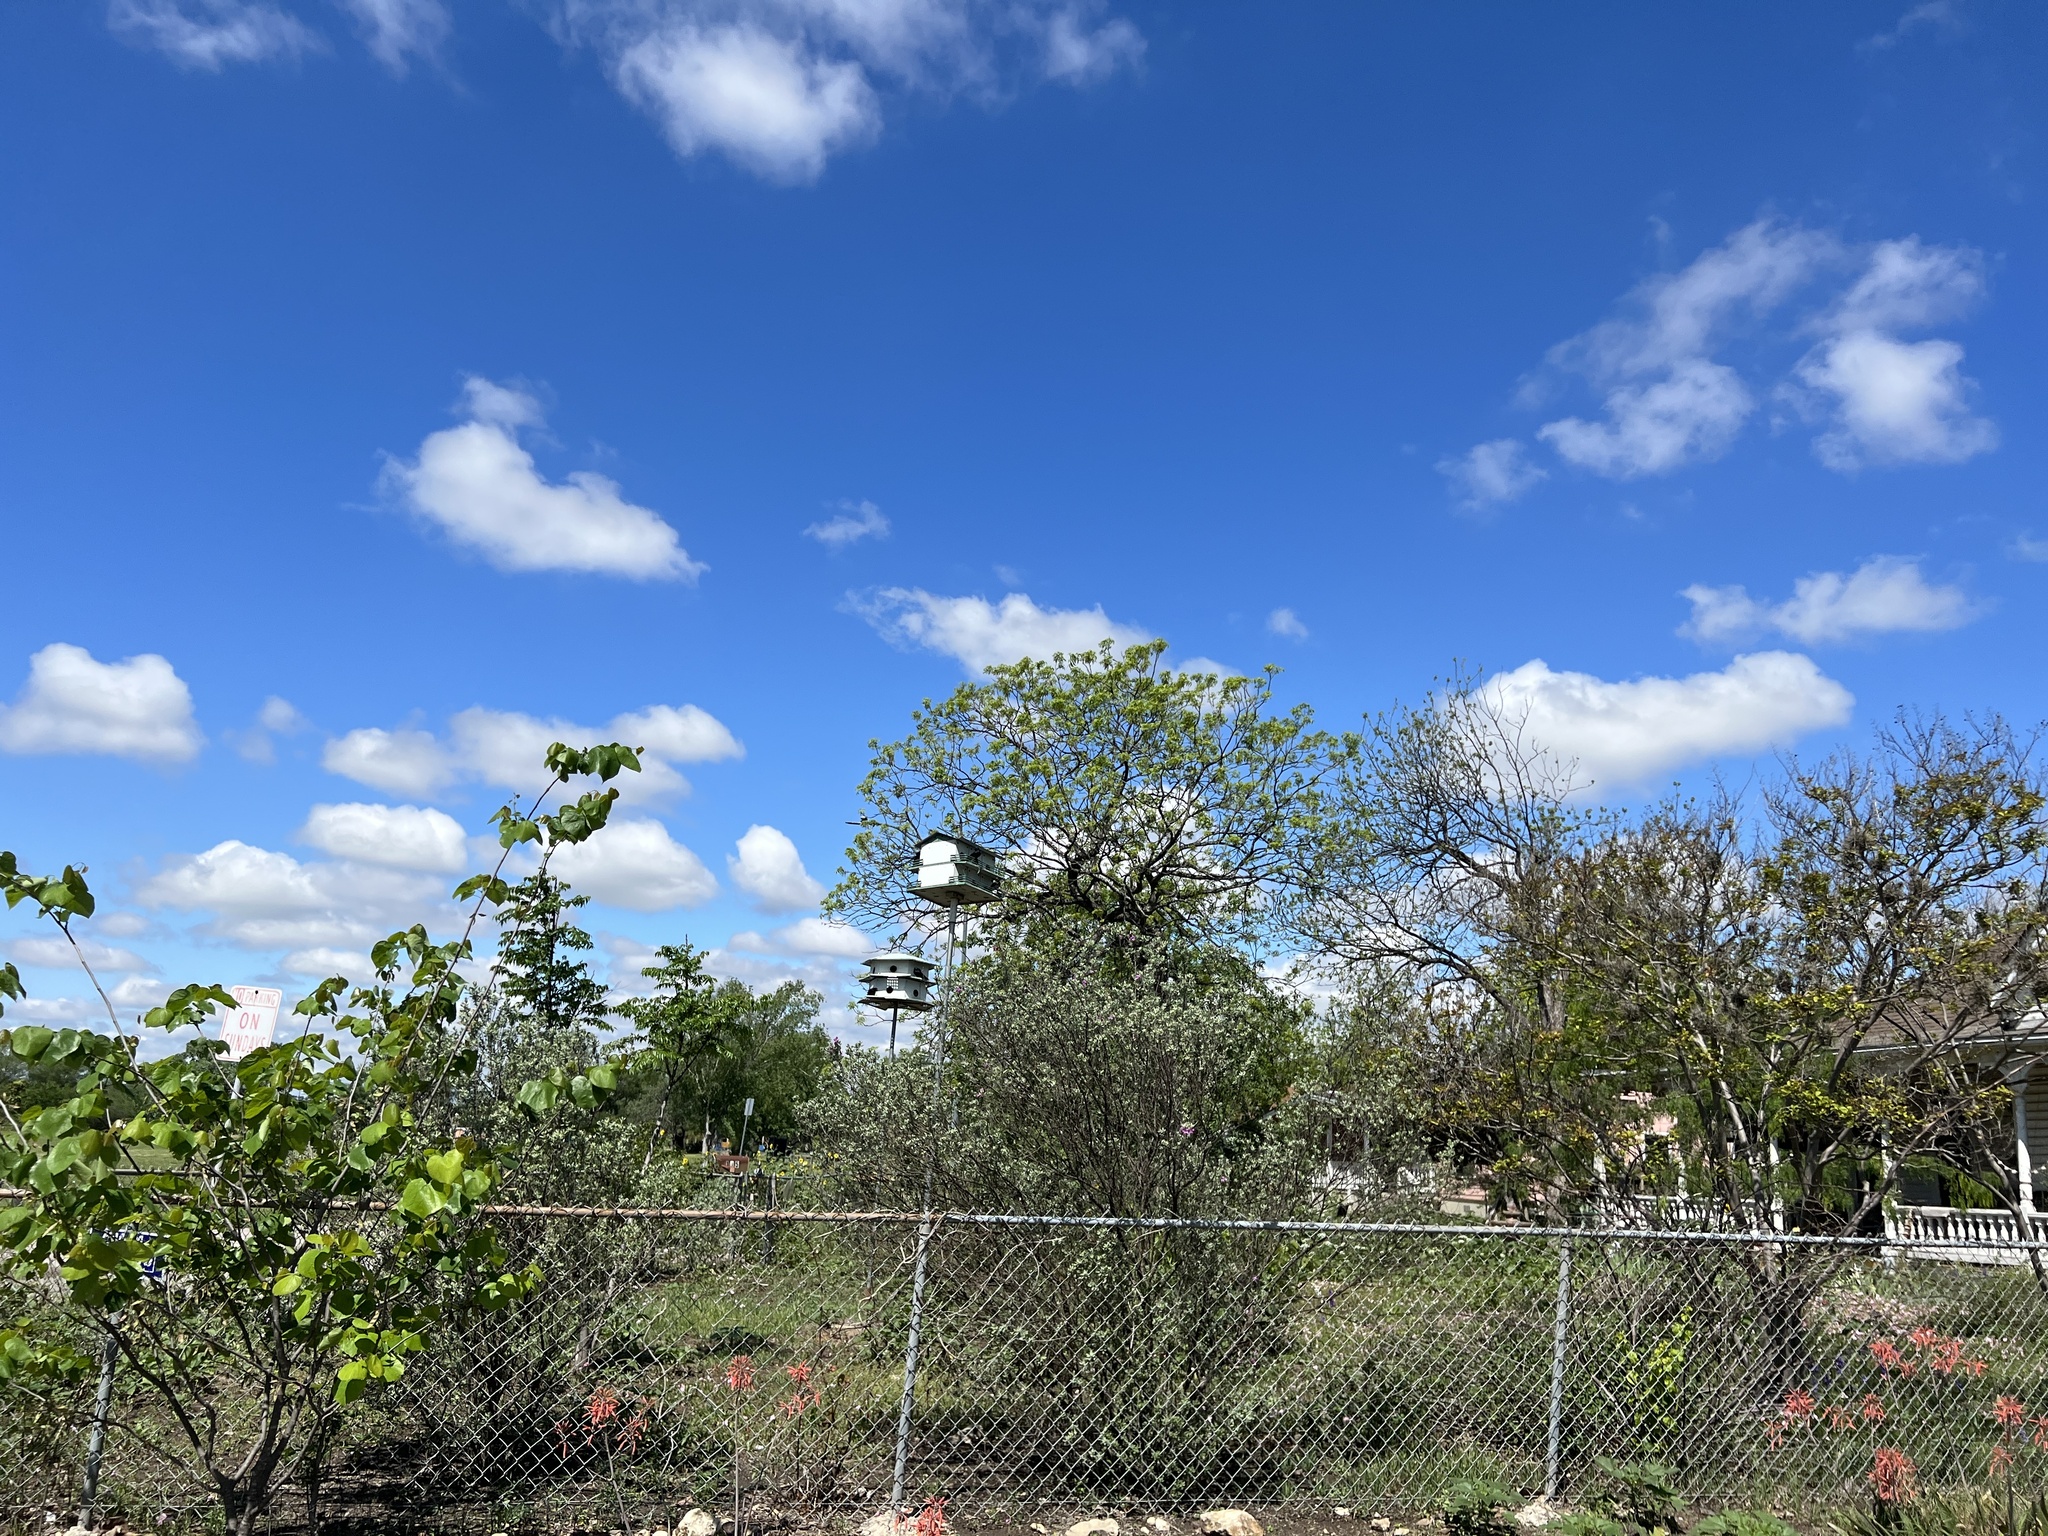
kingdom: Animalia
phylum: Chordata
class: Aves
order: Passeriformes
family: Hirundinidae
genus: Progne
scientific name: Progne subis
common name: Purple martin
